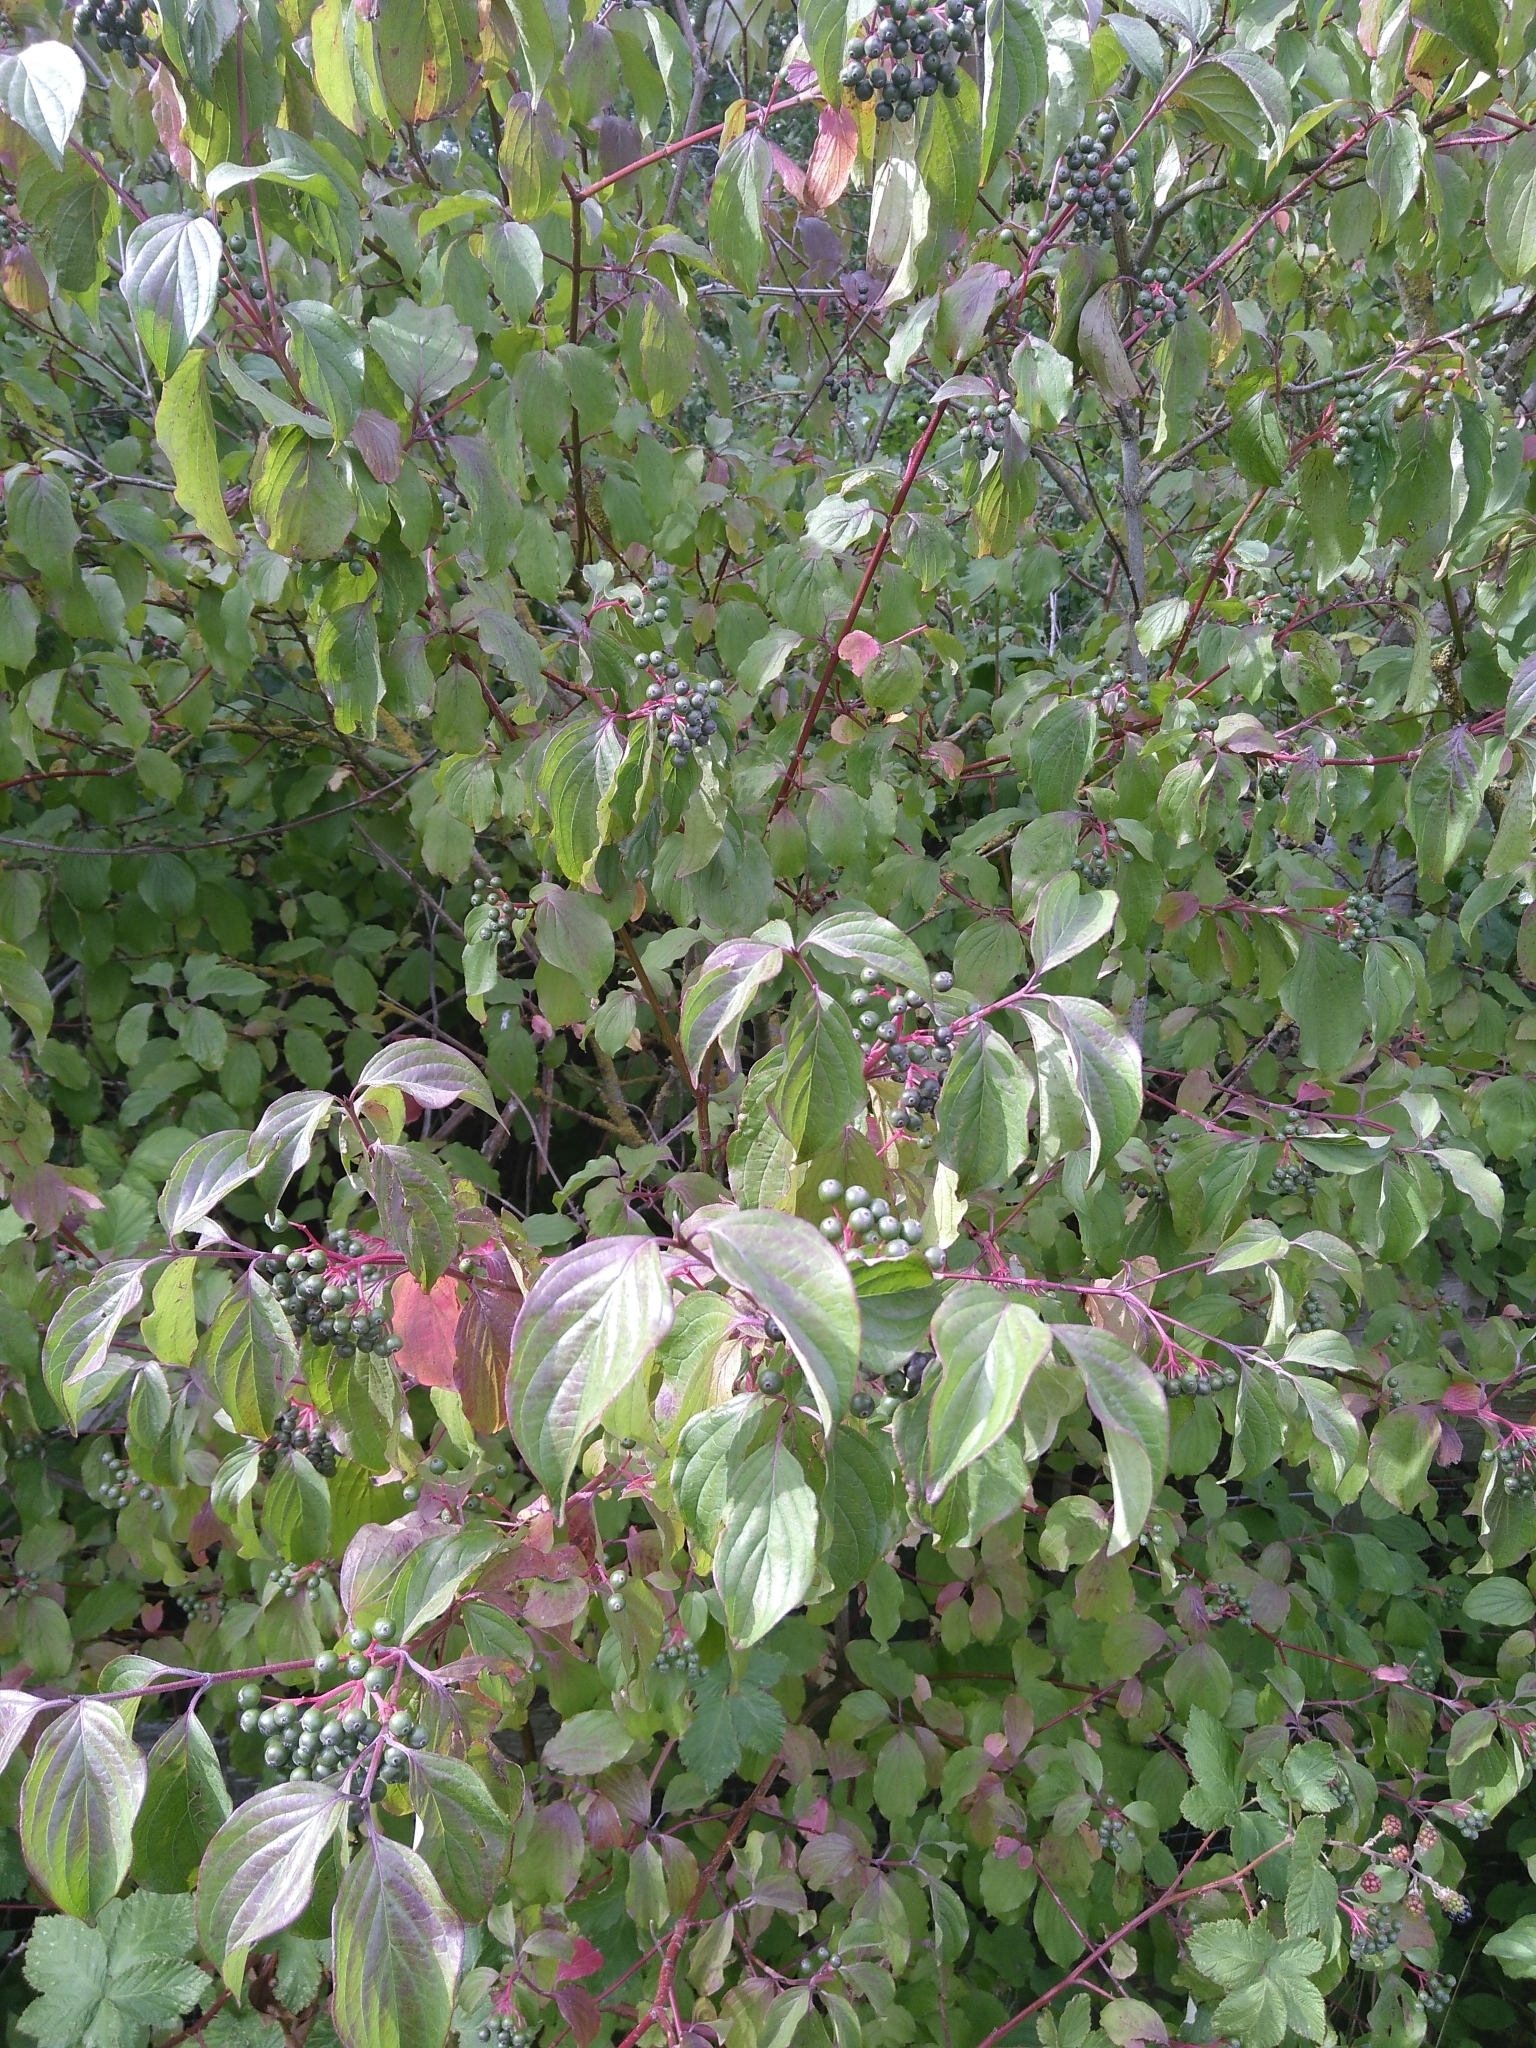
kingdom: Plantae
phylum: Tracheophyta
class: Magnoliopsida
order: Cornales
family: Cornaceae
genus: Cornus
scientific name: Cornus sanguinea
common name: Dogwood
